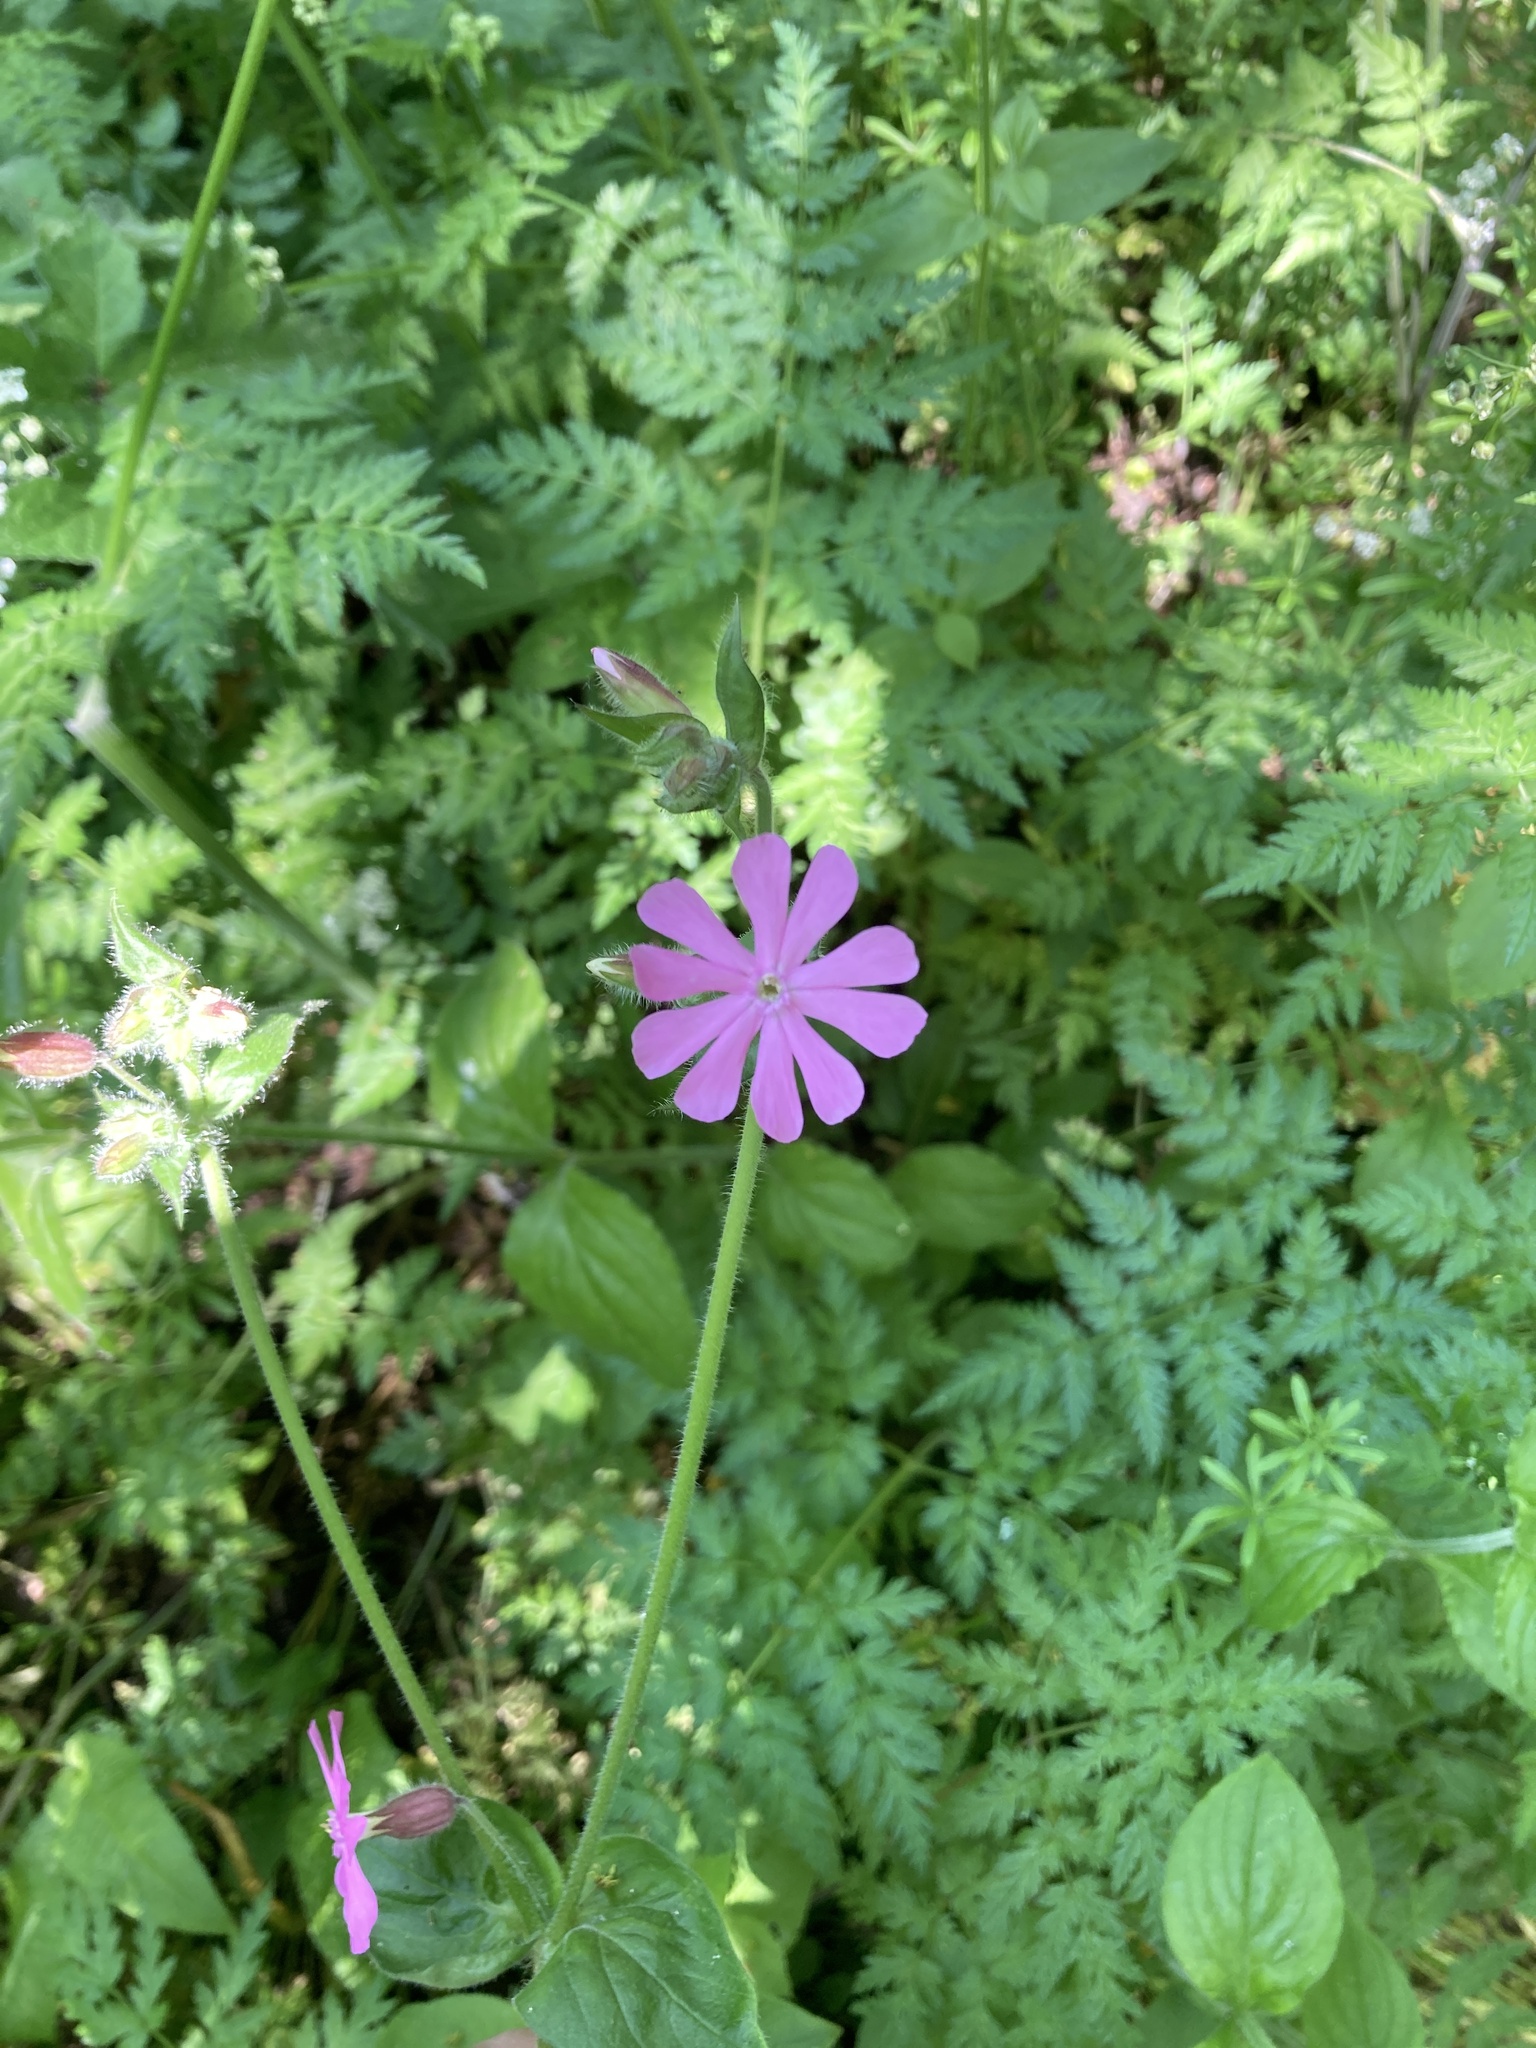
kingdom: Plantae
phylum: Tracheophyta
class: Magnoliopsida
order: Caryophyllales
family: Caryophyllaceae
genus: Silene
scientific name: Silene dioica
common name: Red campion
